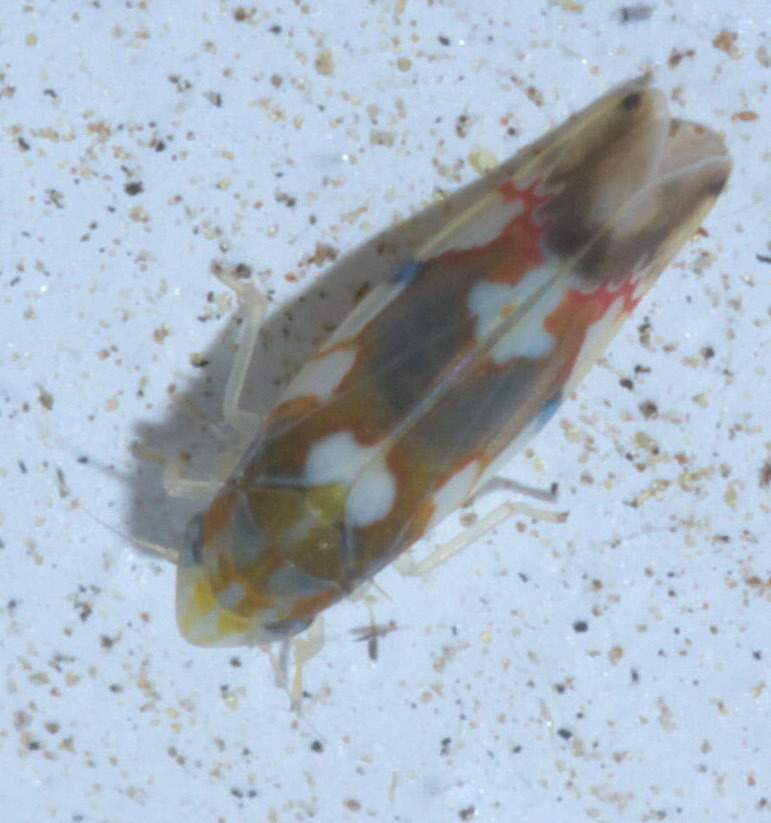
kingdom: Animalia
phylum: Arthropoda
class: Insecta
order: Hemiptera
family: Cicadellidae
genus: Erythroneura
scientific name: Erythroneura elegans
